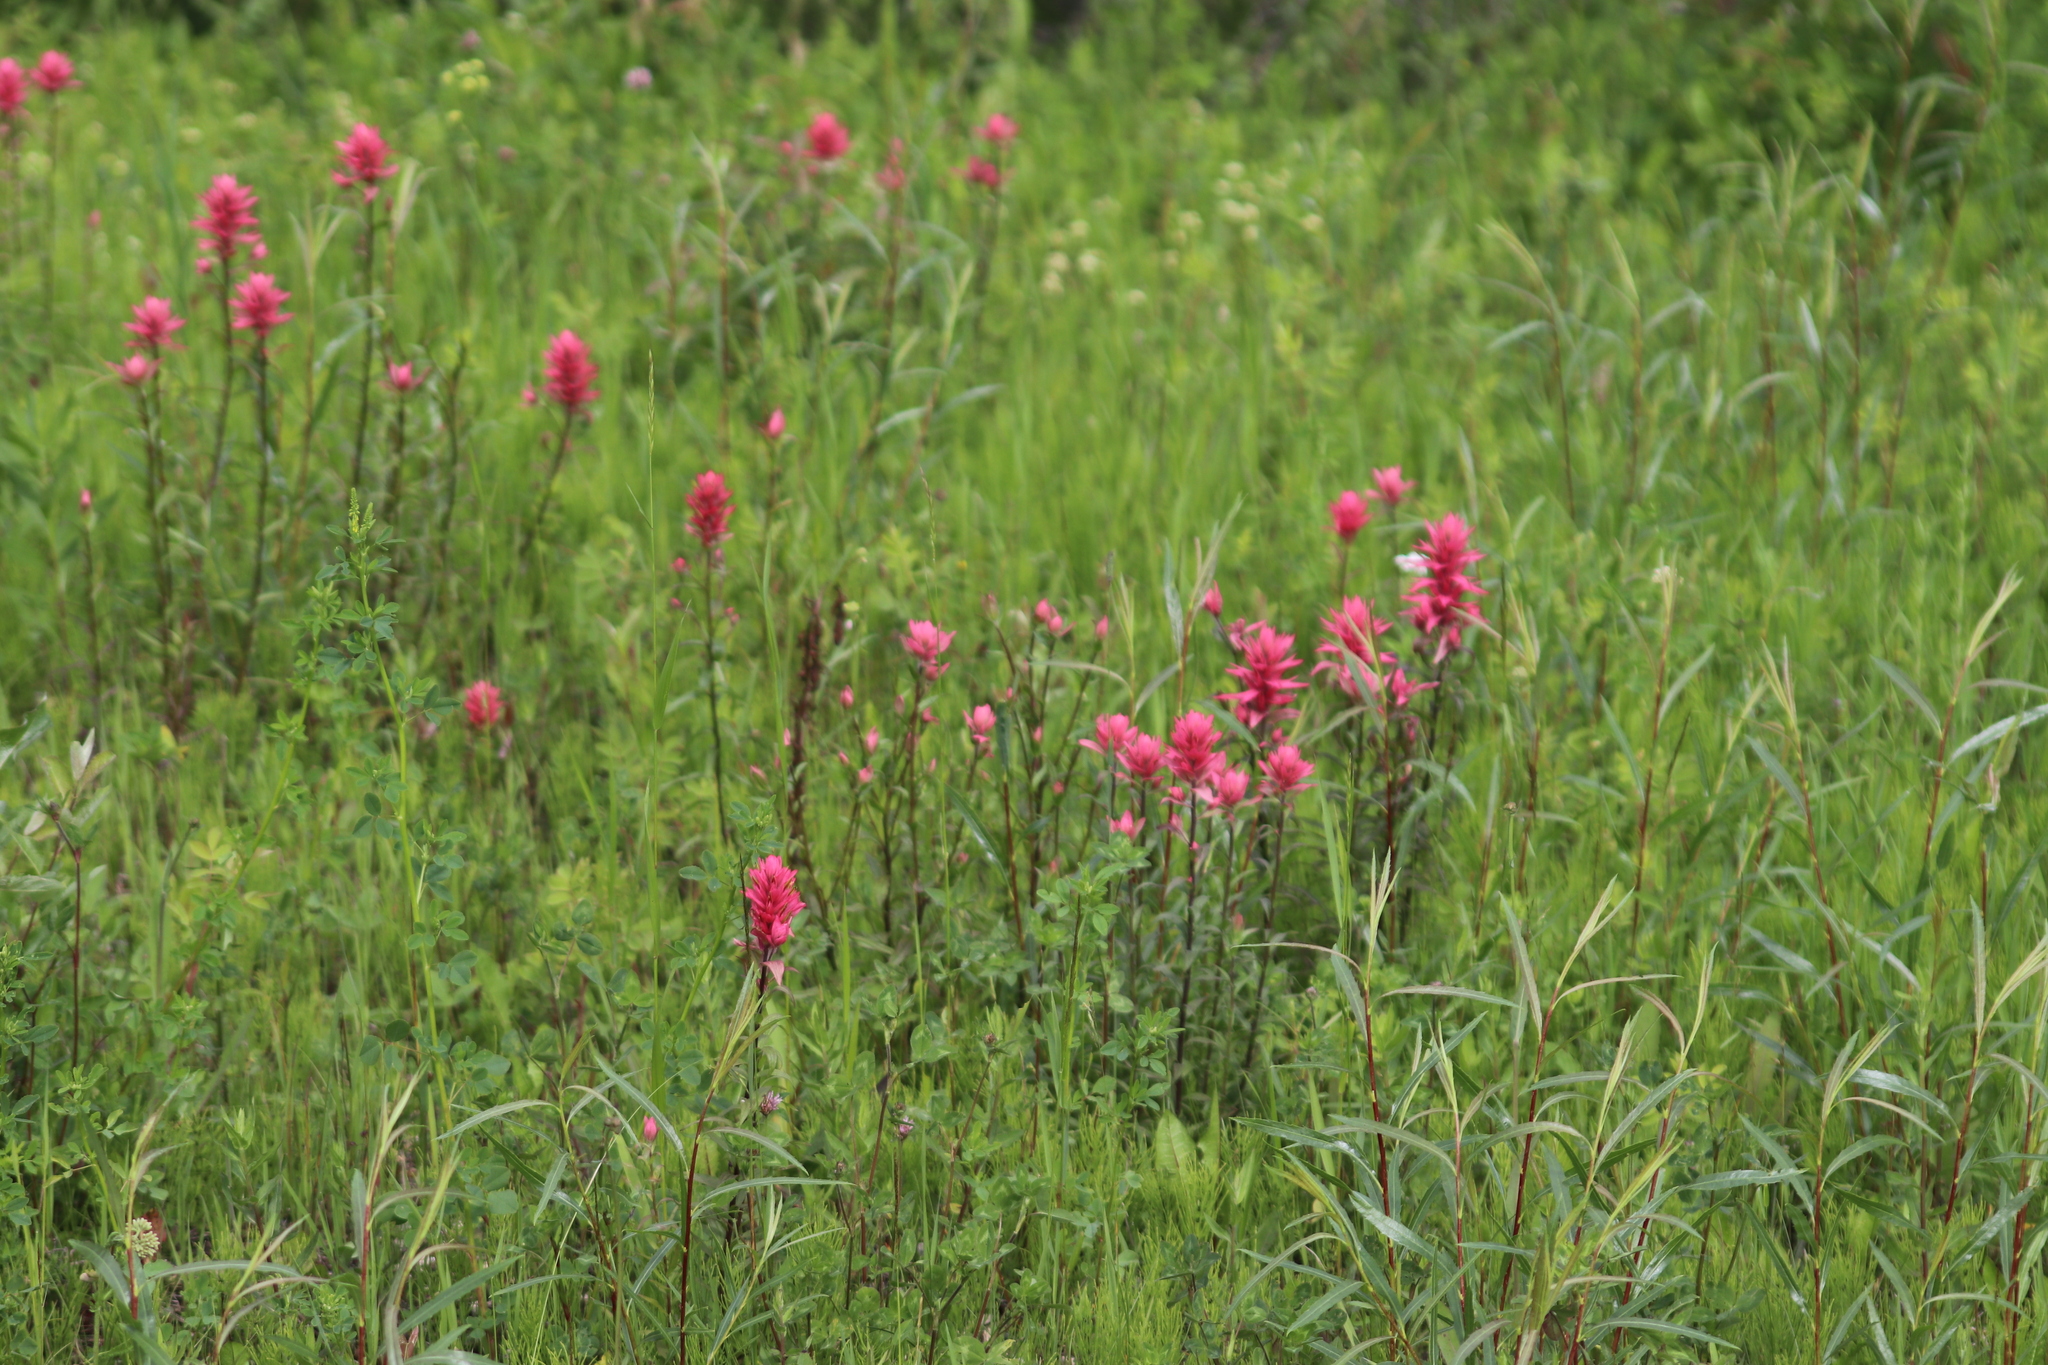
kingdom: Plantae
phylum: Tracheophyta
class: Magnoliopsida
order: Lamiales
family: Orobanchaceae
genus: Castilleja
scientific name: Castilleja miniata
